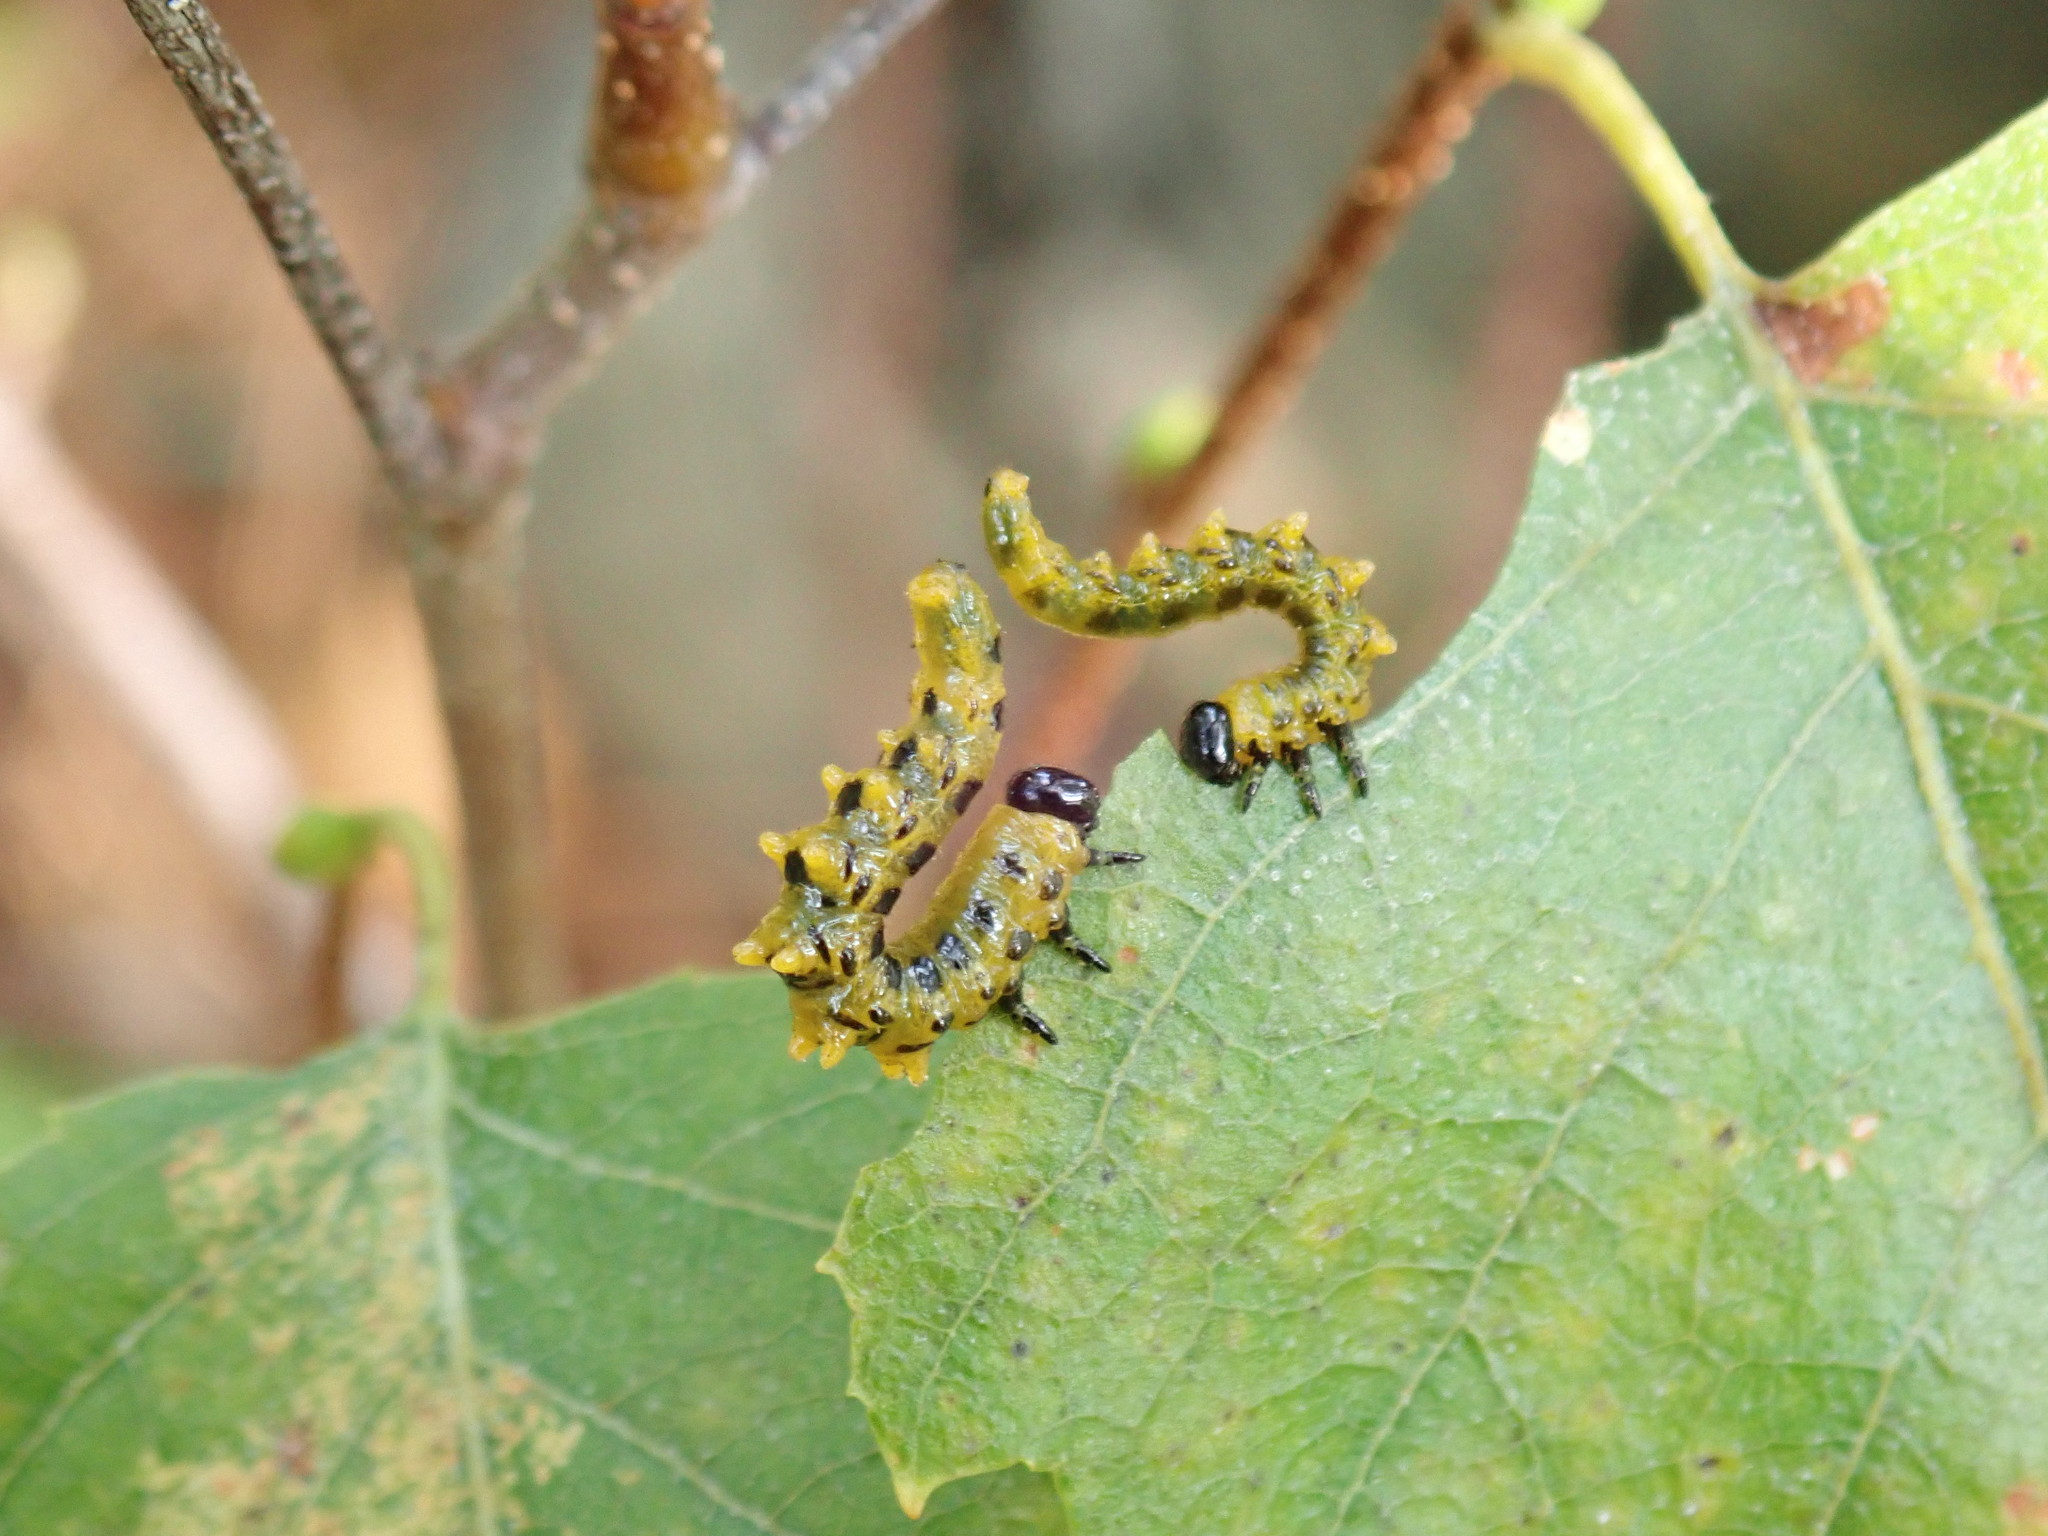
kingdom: Animalia
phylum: Arthropoda
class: Insecta
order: Hymenoptera
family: Tenthredinidae
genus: Nematus
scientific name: Nematus
